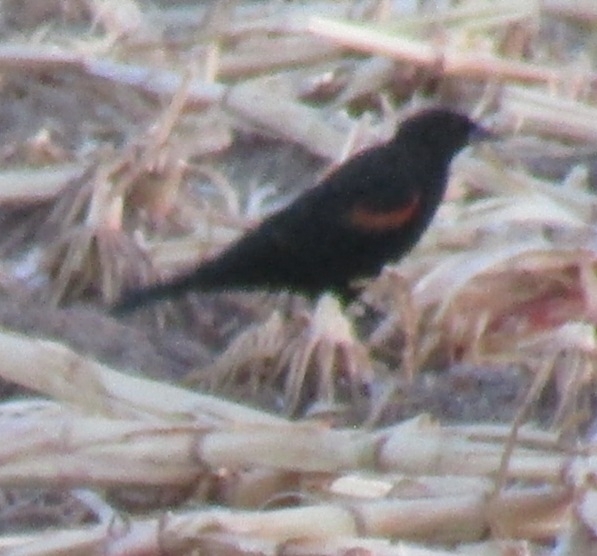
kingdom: Animalia
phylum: Chordata
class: Aves
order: Passeriformes
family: Icteridae
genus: Agelaius
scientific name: Agelaius phoeniceus
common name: Red-winged blackbird
